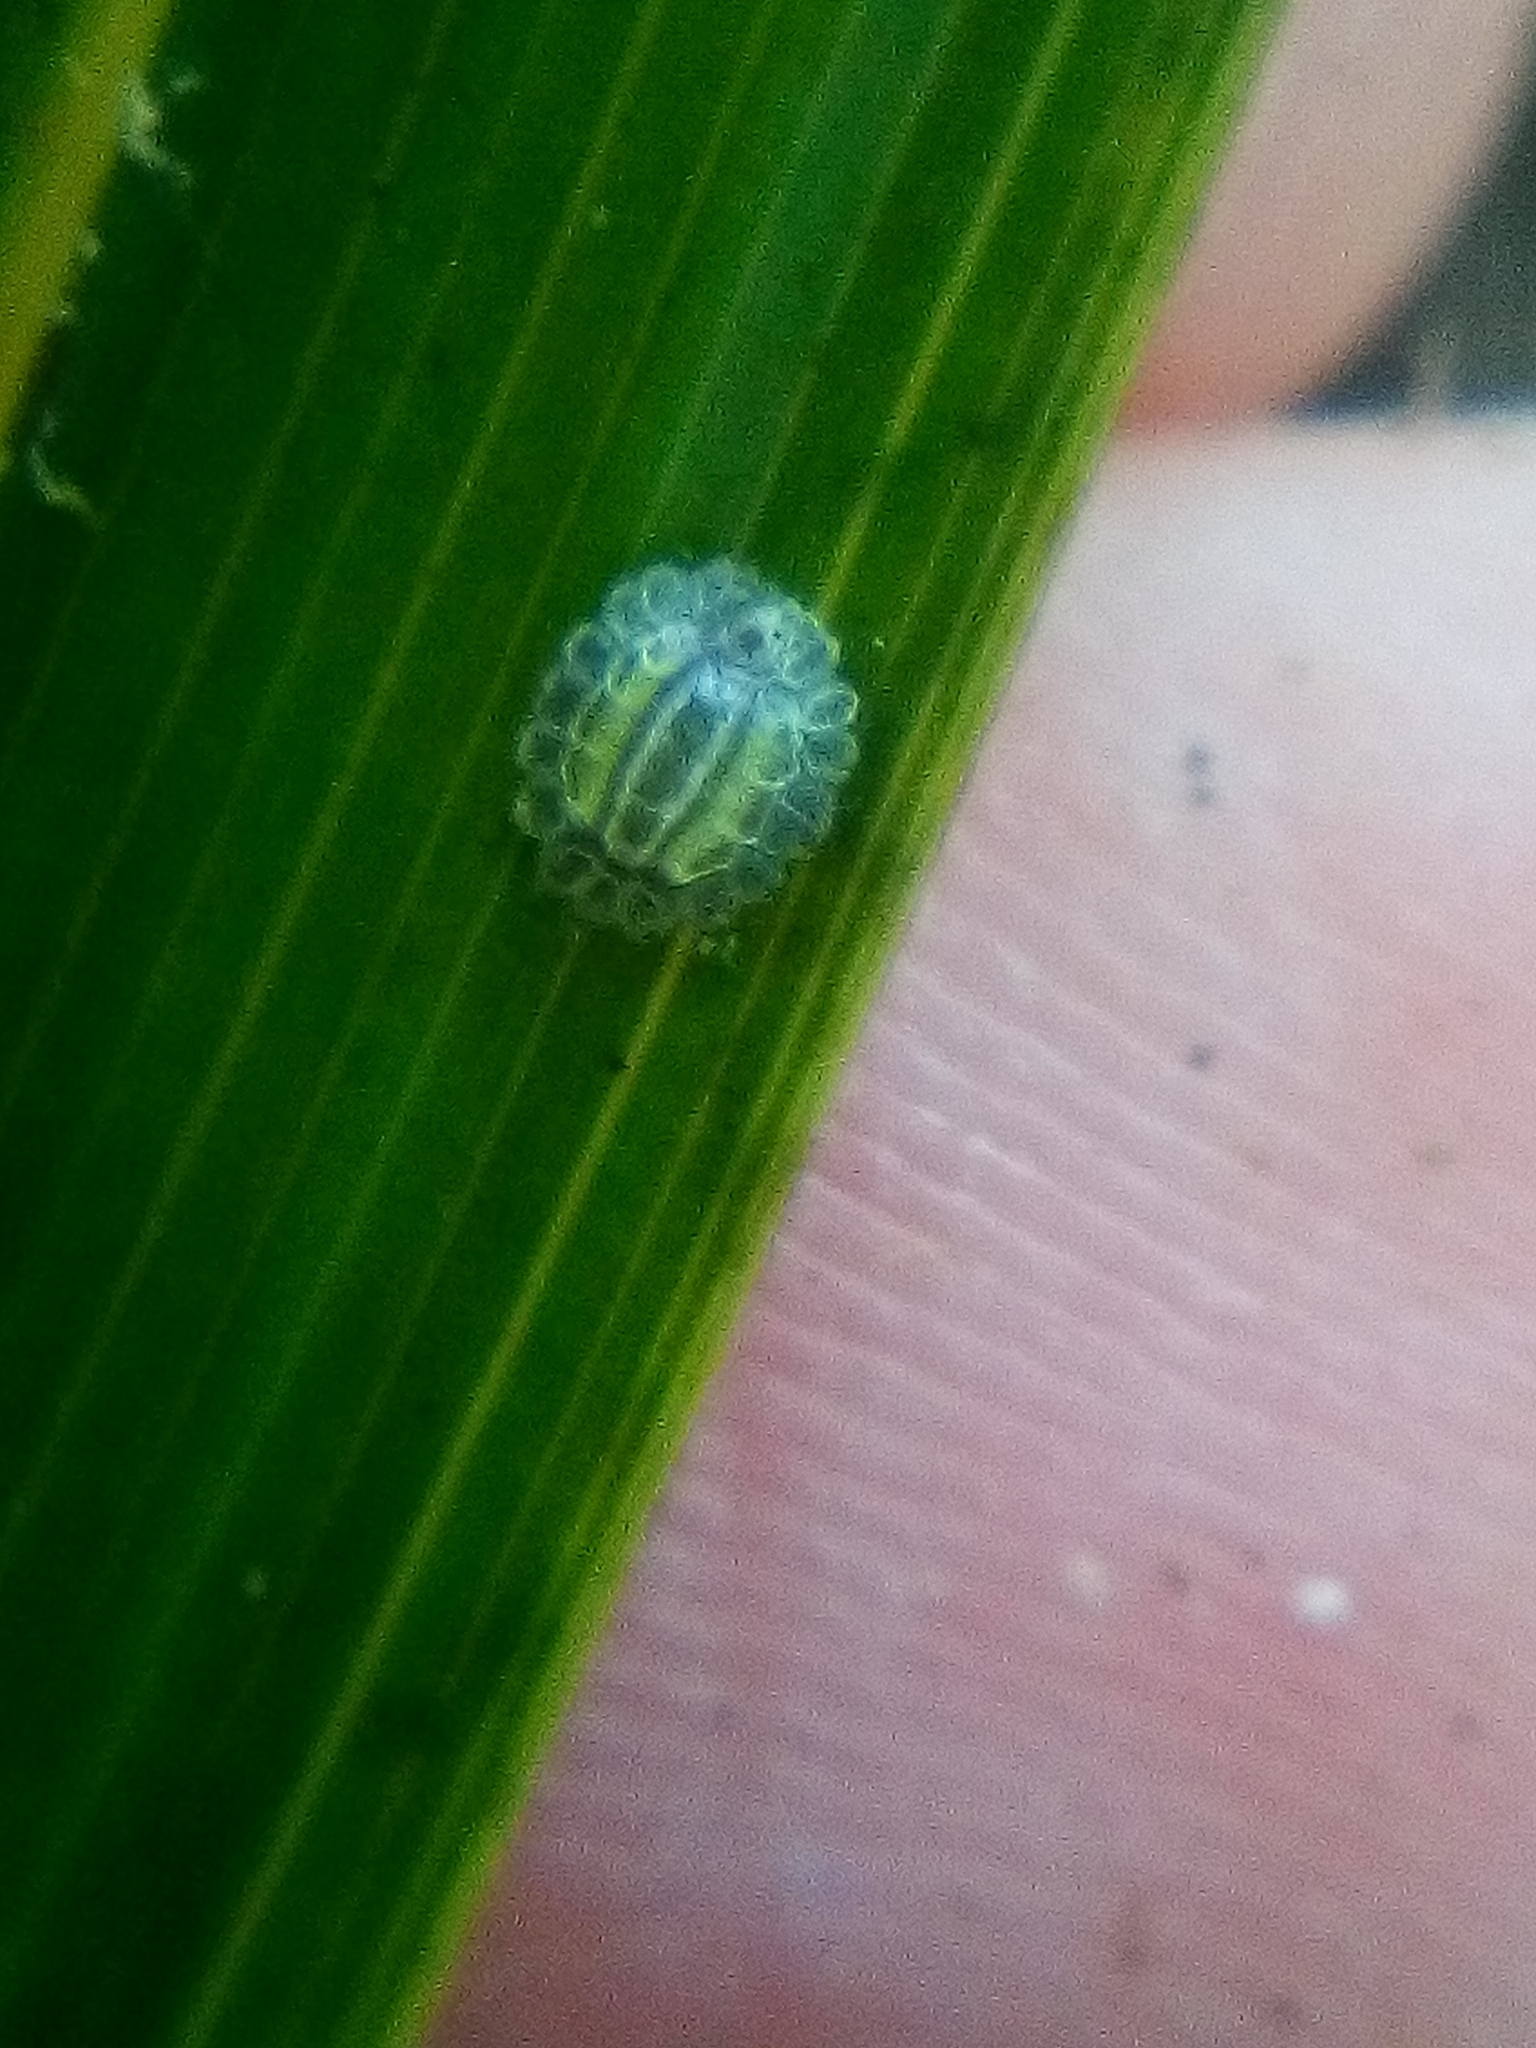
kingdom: Animalia
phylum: Arthropoda
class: Insecta
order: Hemiptera
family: Coccidae
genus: Plumichiton
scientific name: Plumichiton nikau
